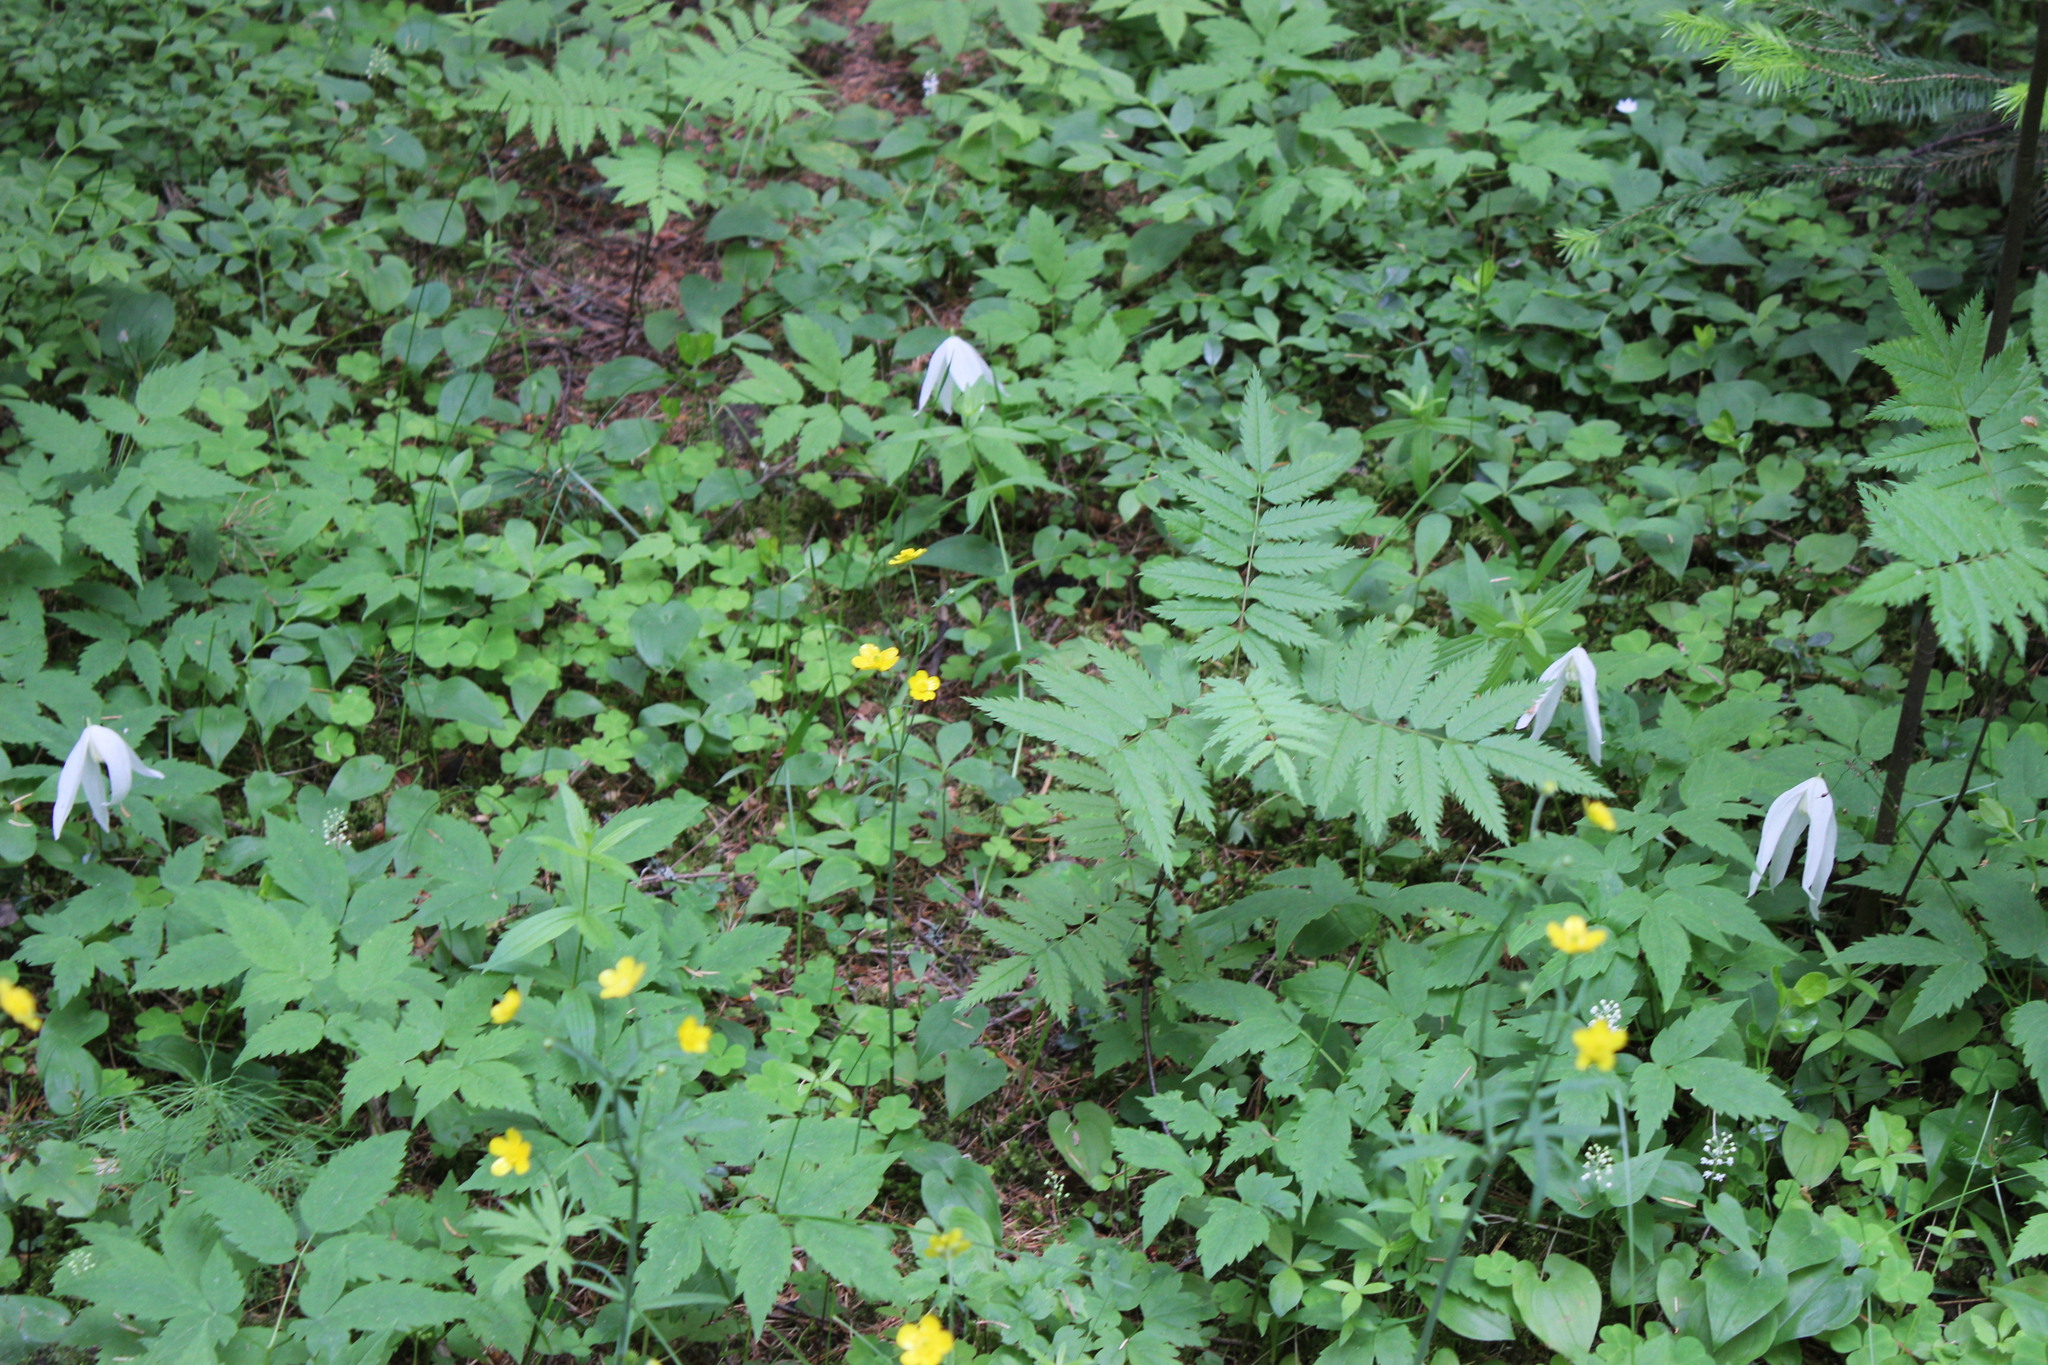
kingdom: Plantae
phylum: Tracheophyta
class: Magnoliopsida
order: Ranunculales
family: Ranunculaceae
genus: Clematis
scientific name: Clematis sibirica
